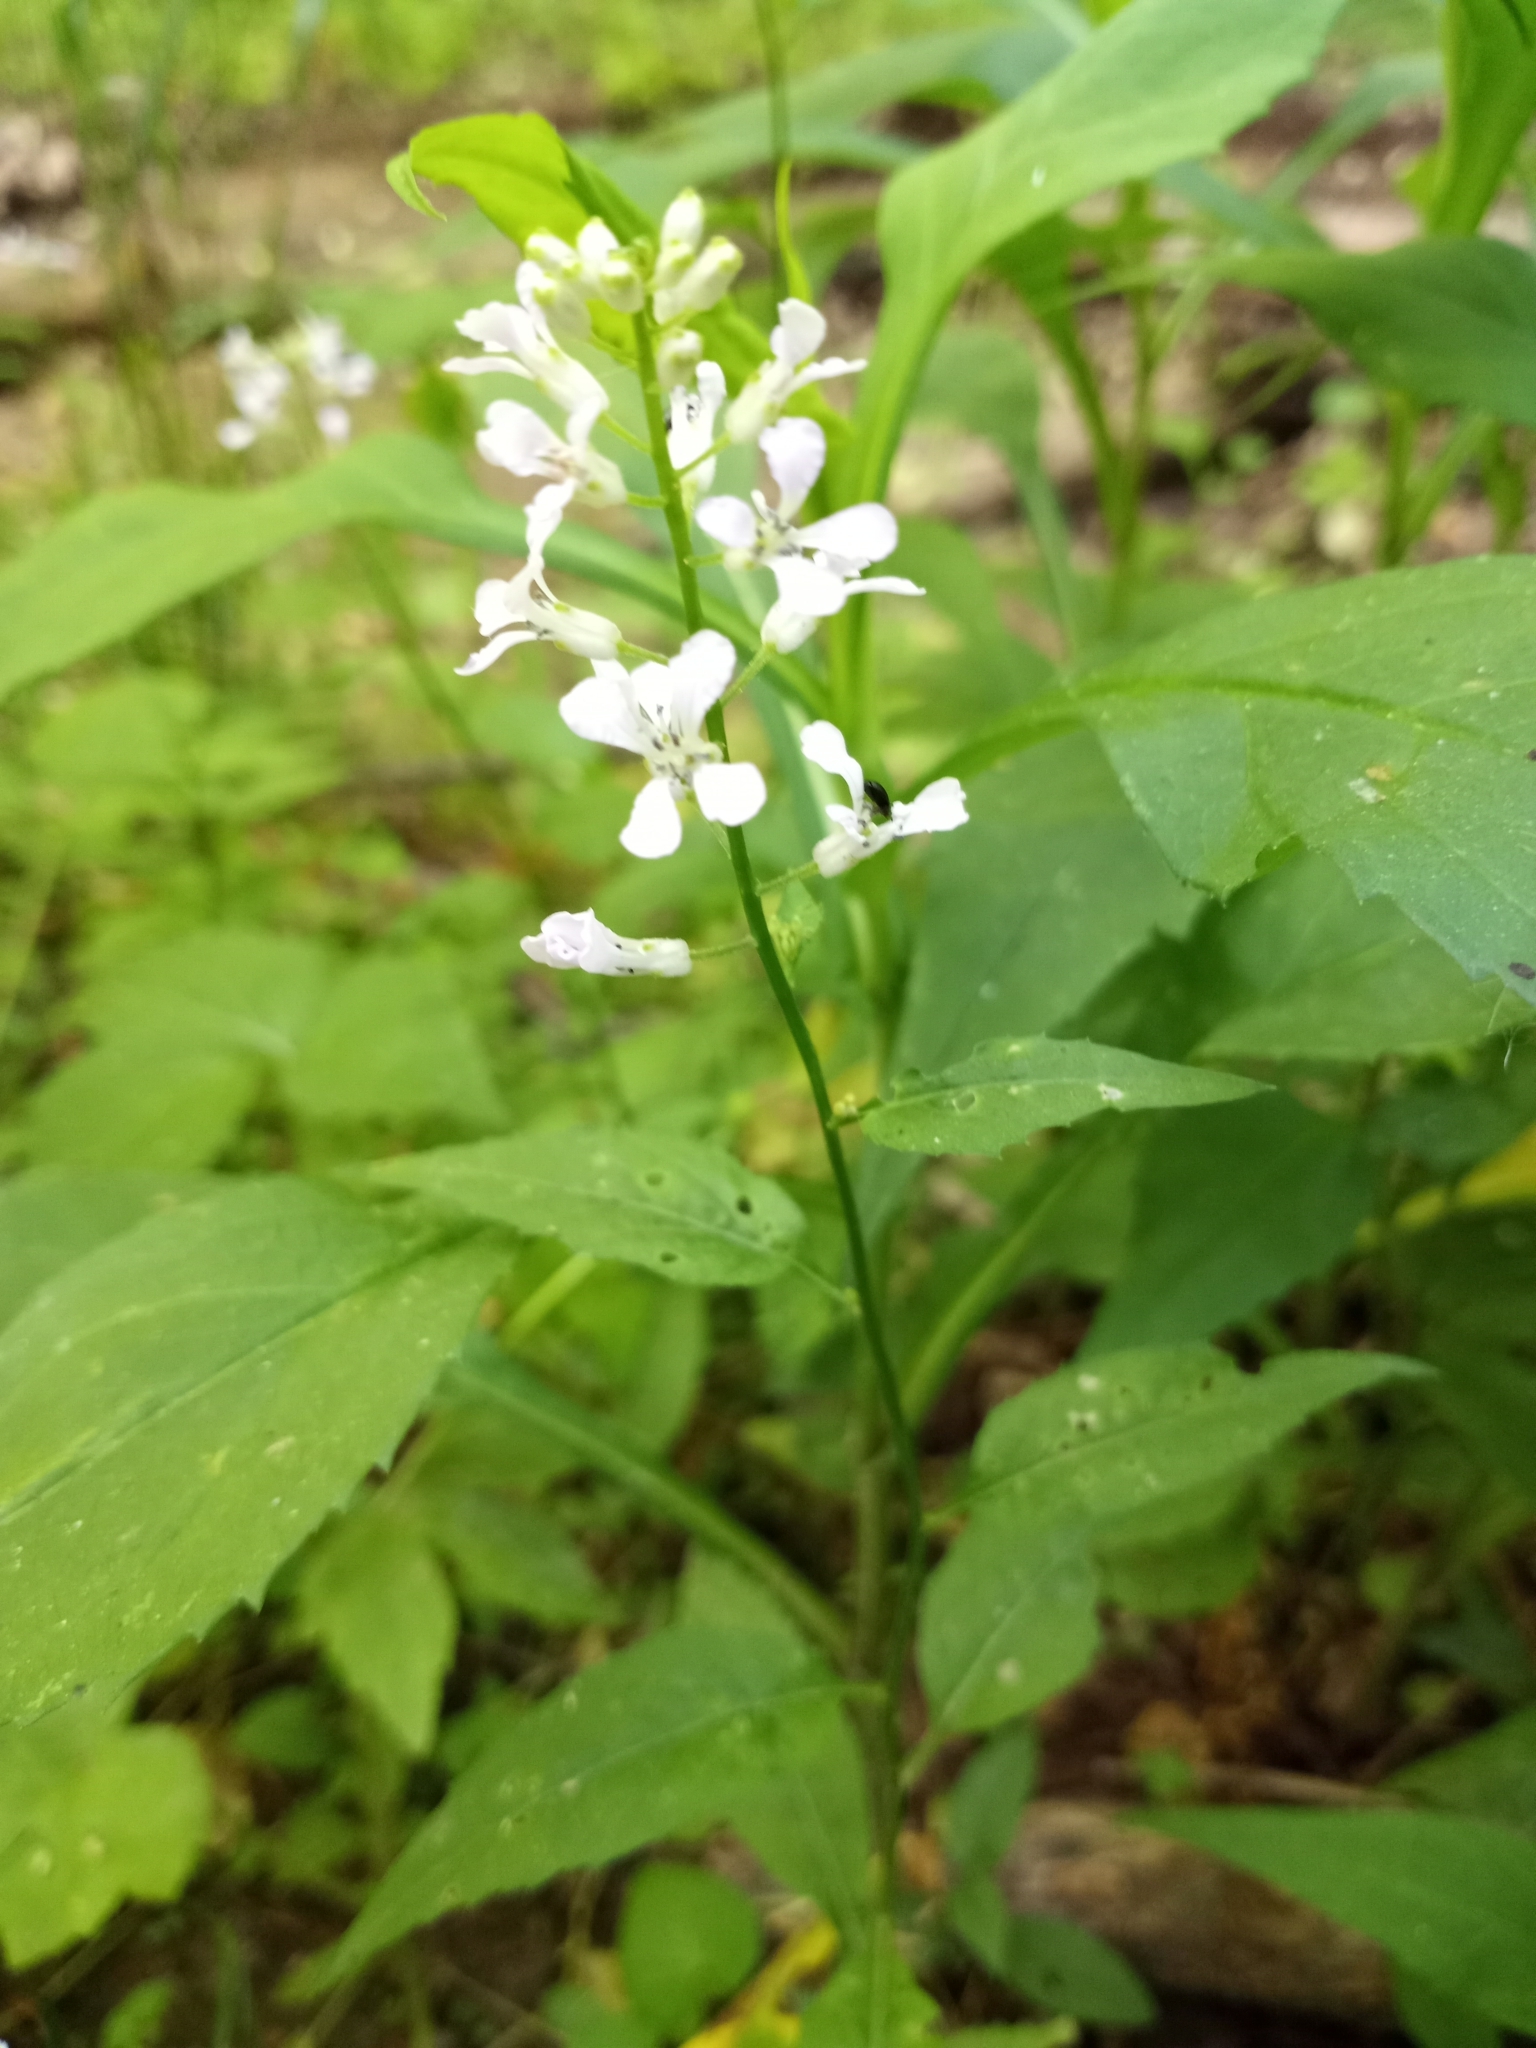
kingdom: Plantae
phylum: Tracheophyta
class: Magnoliopsida
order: Brassicales
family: Brassicaceae
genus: Iodanthus
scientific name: Iodanthus pinnatifidus
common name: Violet rocket
